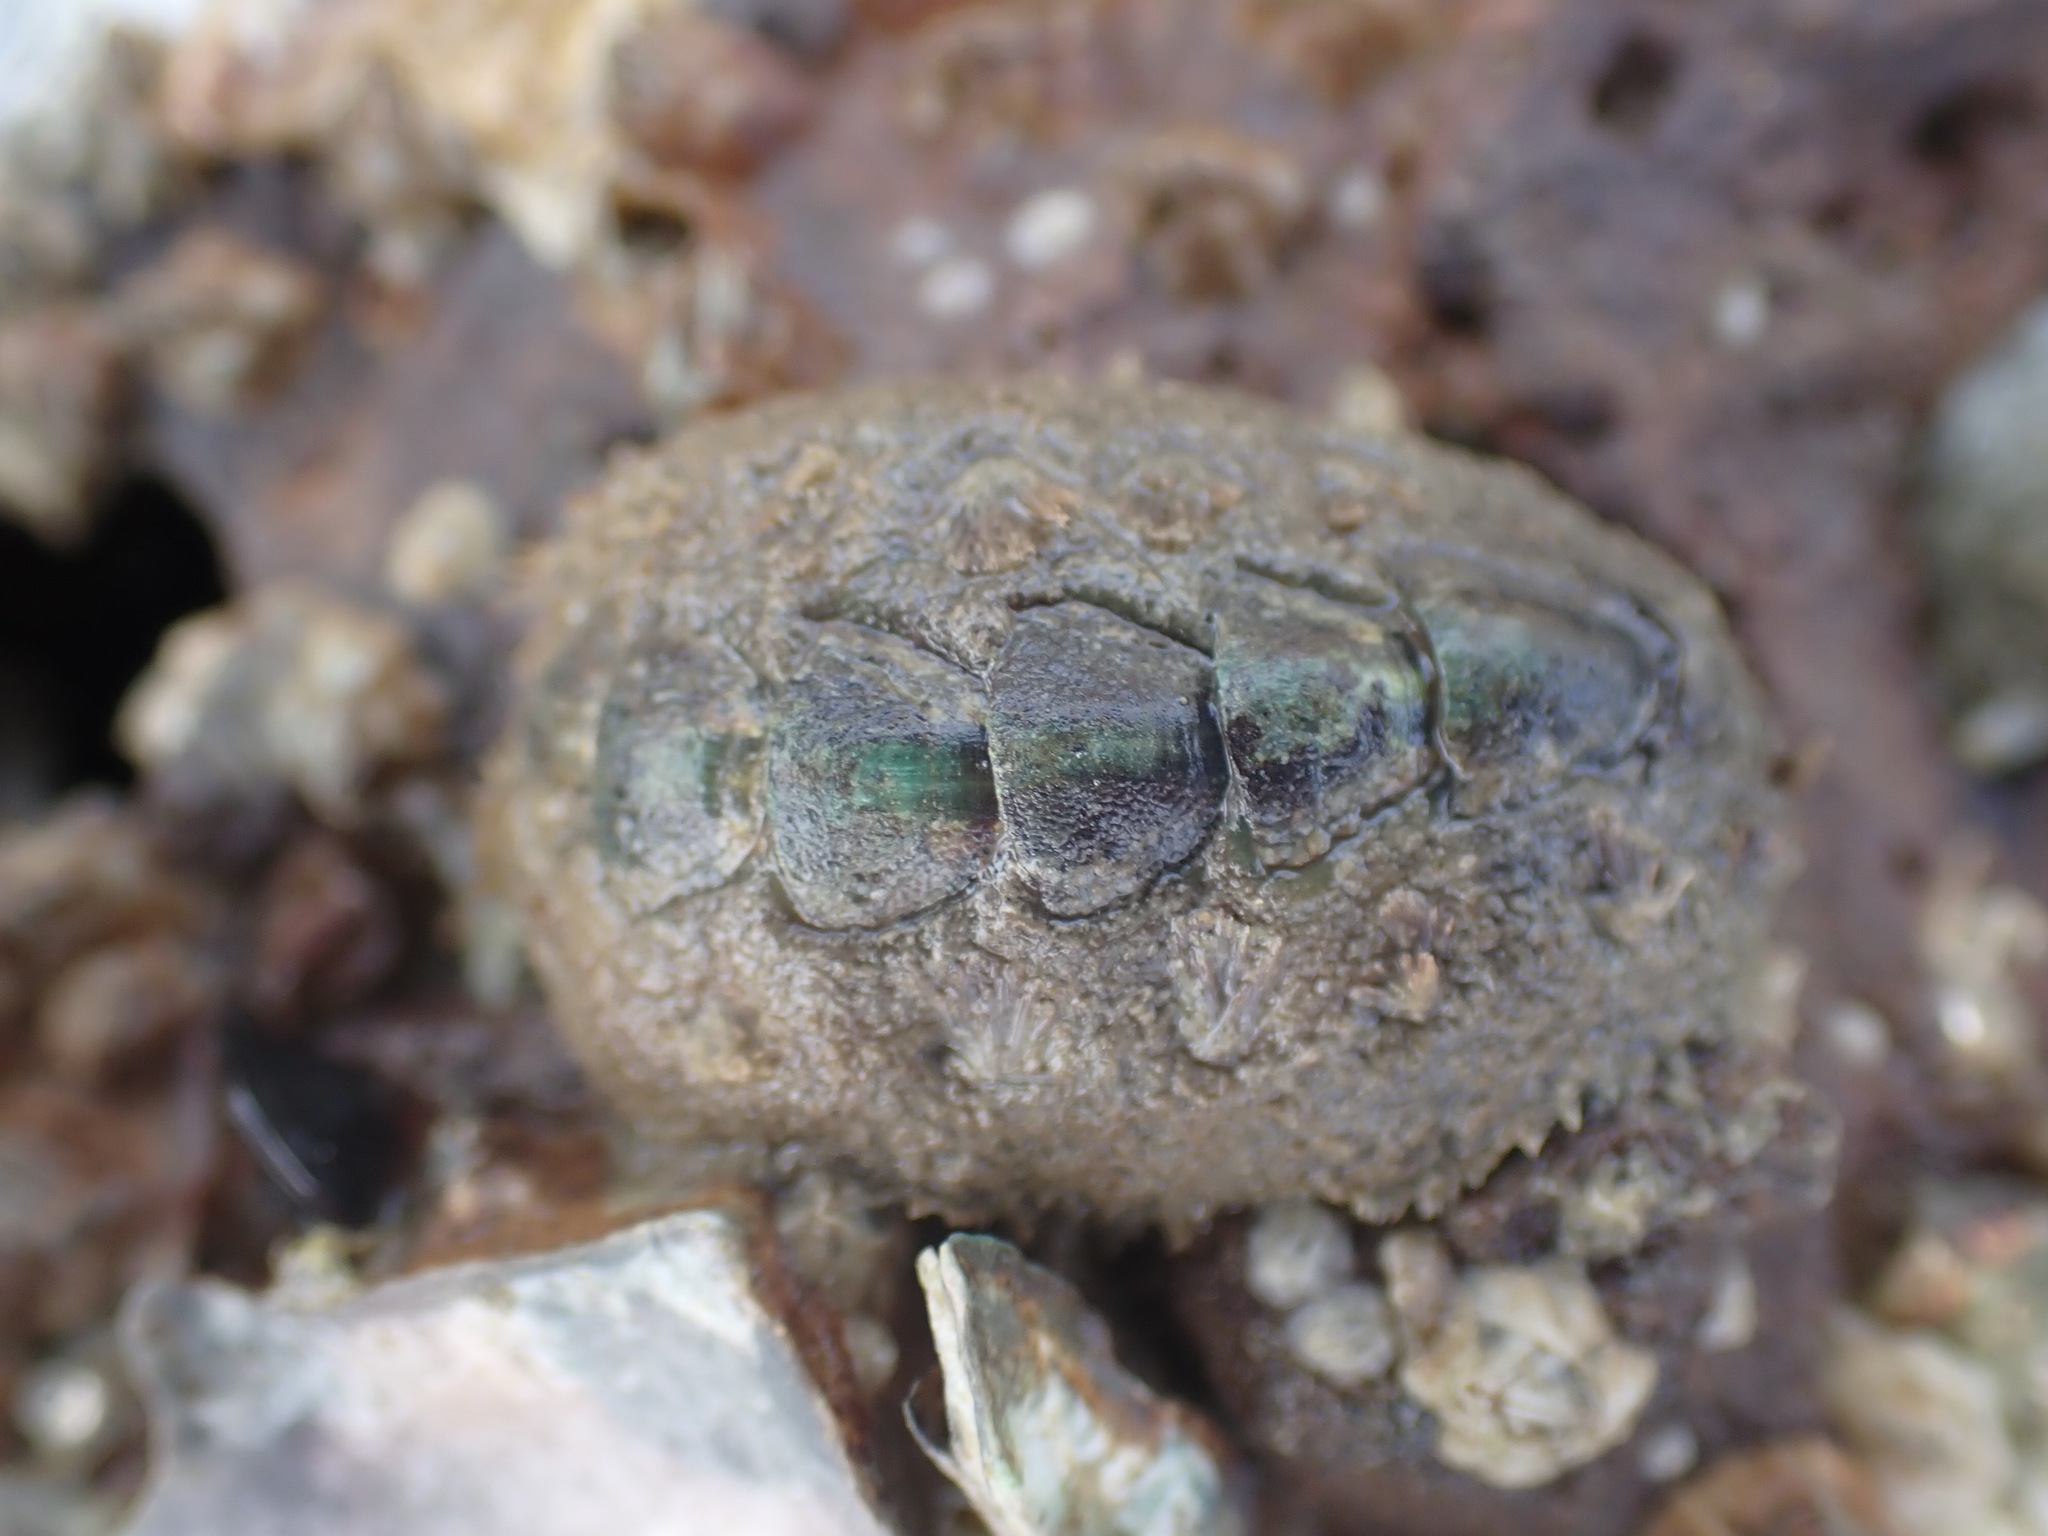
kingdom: Animalia
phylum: Mollusca
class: Polyplacophora
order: Chitonida
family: Acanthochitonidae
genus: Acanthochitona
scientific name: Acanthochitona zelandica
